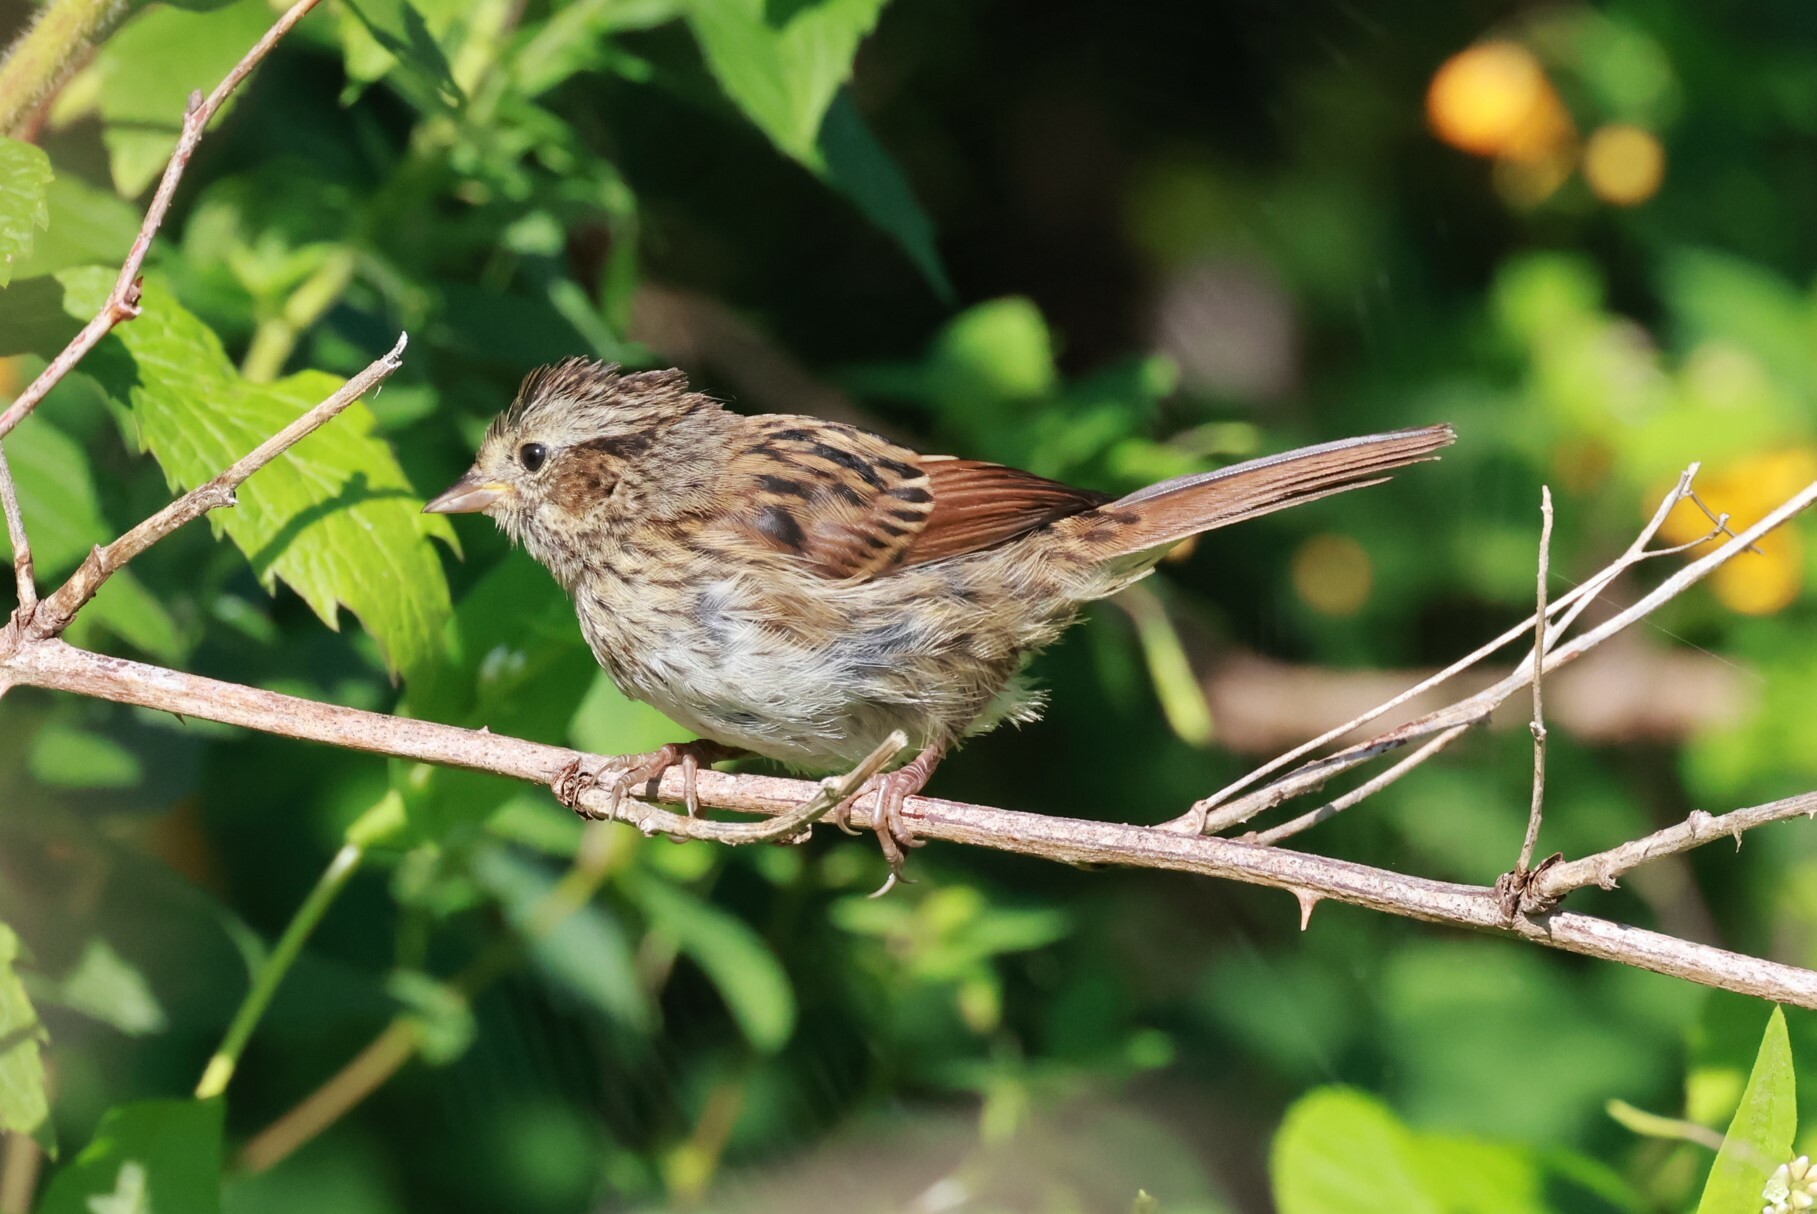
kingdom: Animalia
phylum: Chordata
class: Aves
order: Passeriformes
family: Passerellidae
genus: Melospiza
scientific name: Melospiza georgiana
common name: Swamp sparrow
